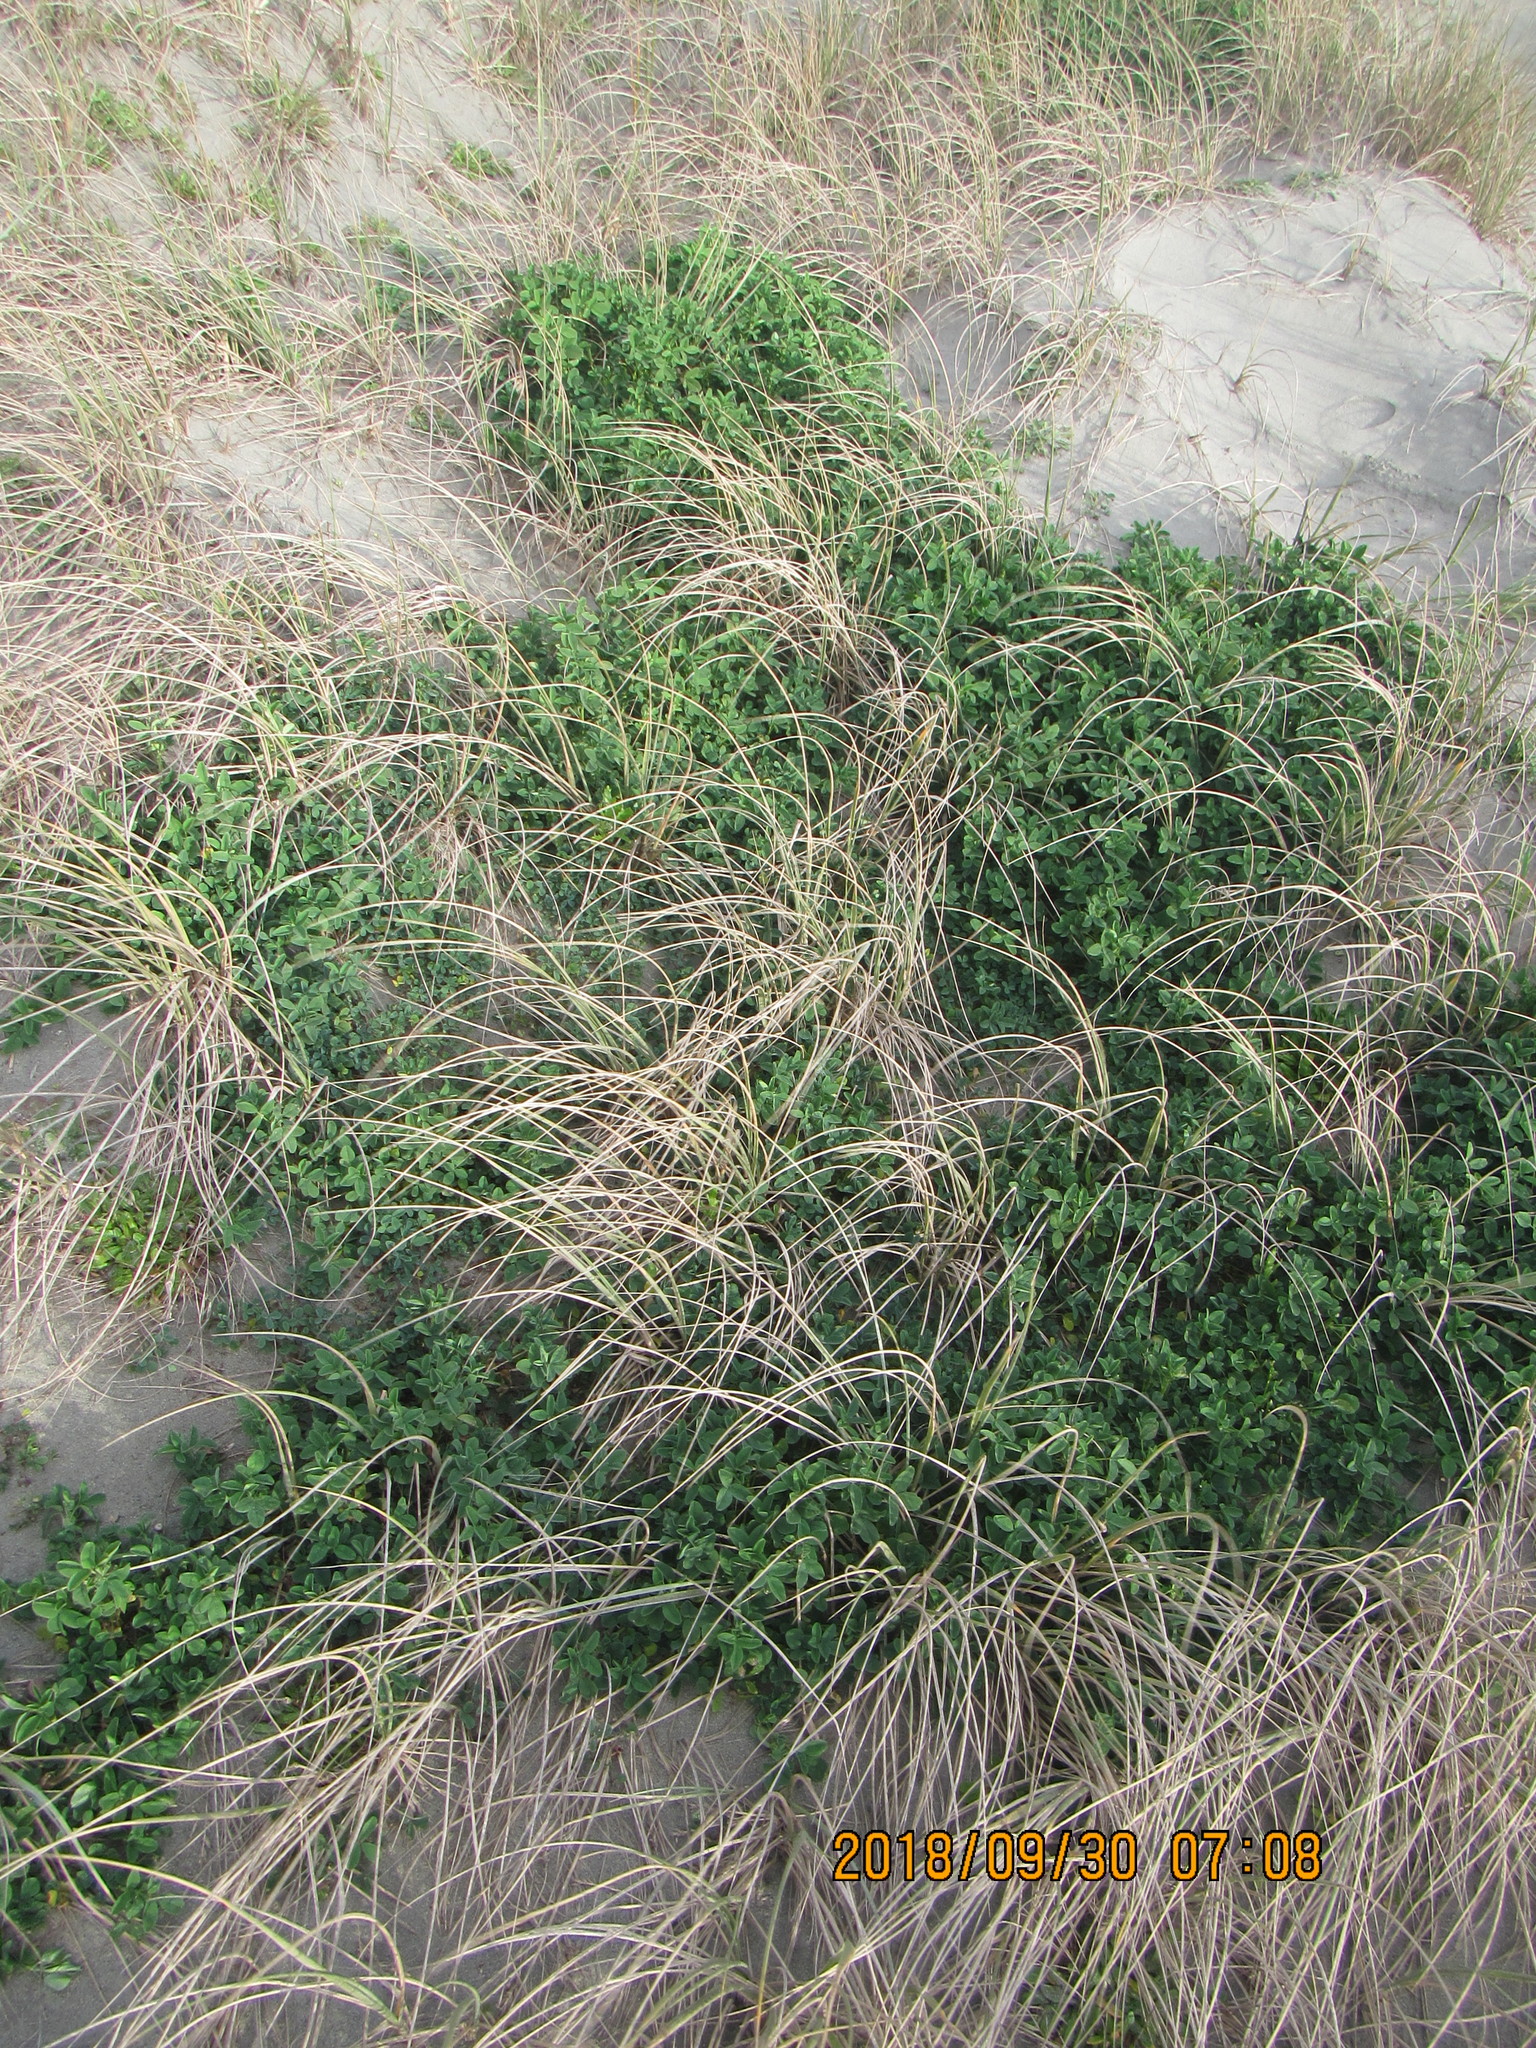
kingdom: Plantae
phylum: Tracheophyta
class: Magnoliopsida
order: Fabales
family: Fabaceae
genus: Melilotus
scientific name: Melilotus indicus
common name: Small melilot
